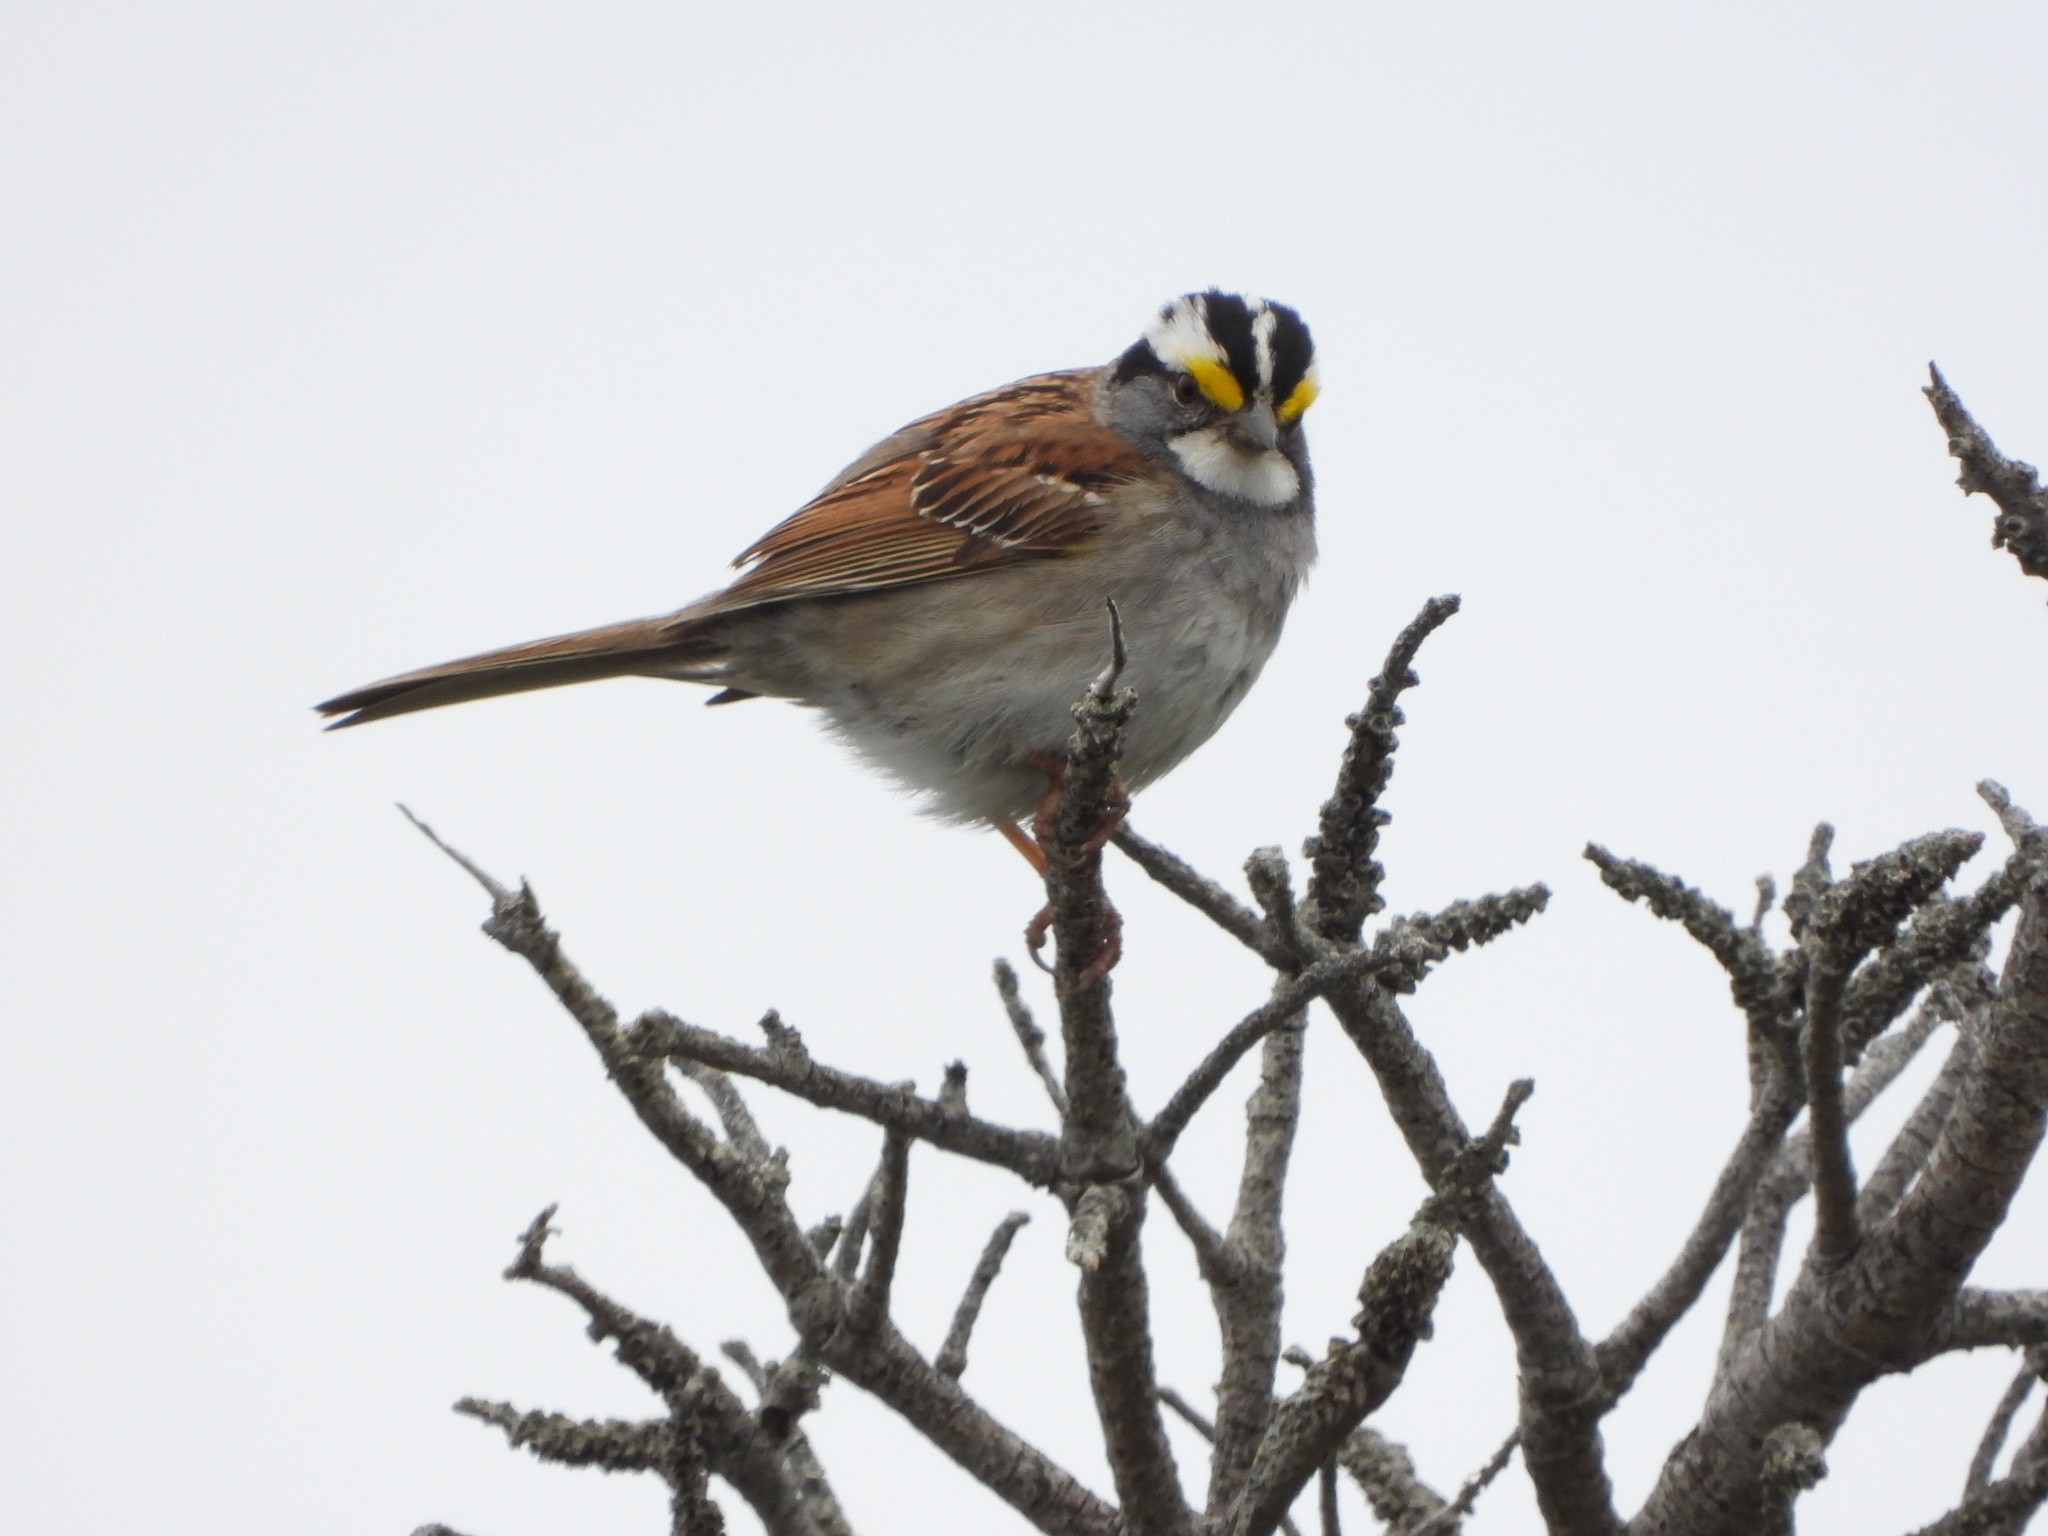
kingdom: Animalia
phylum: Chordata
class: Aves
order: Passeriformes
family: Passerellidae
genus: Zonotrichia
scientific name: Zonotrichia albicollis
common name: White-throated sparrow
